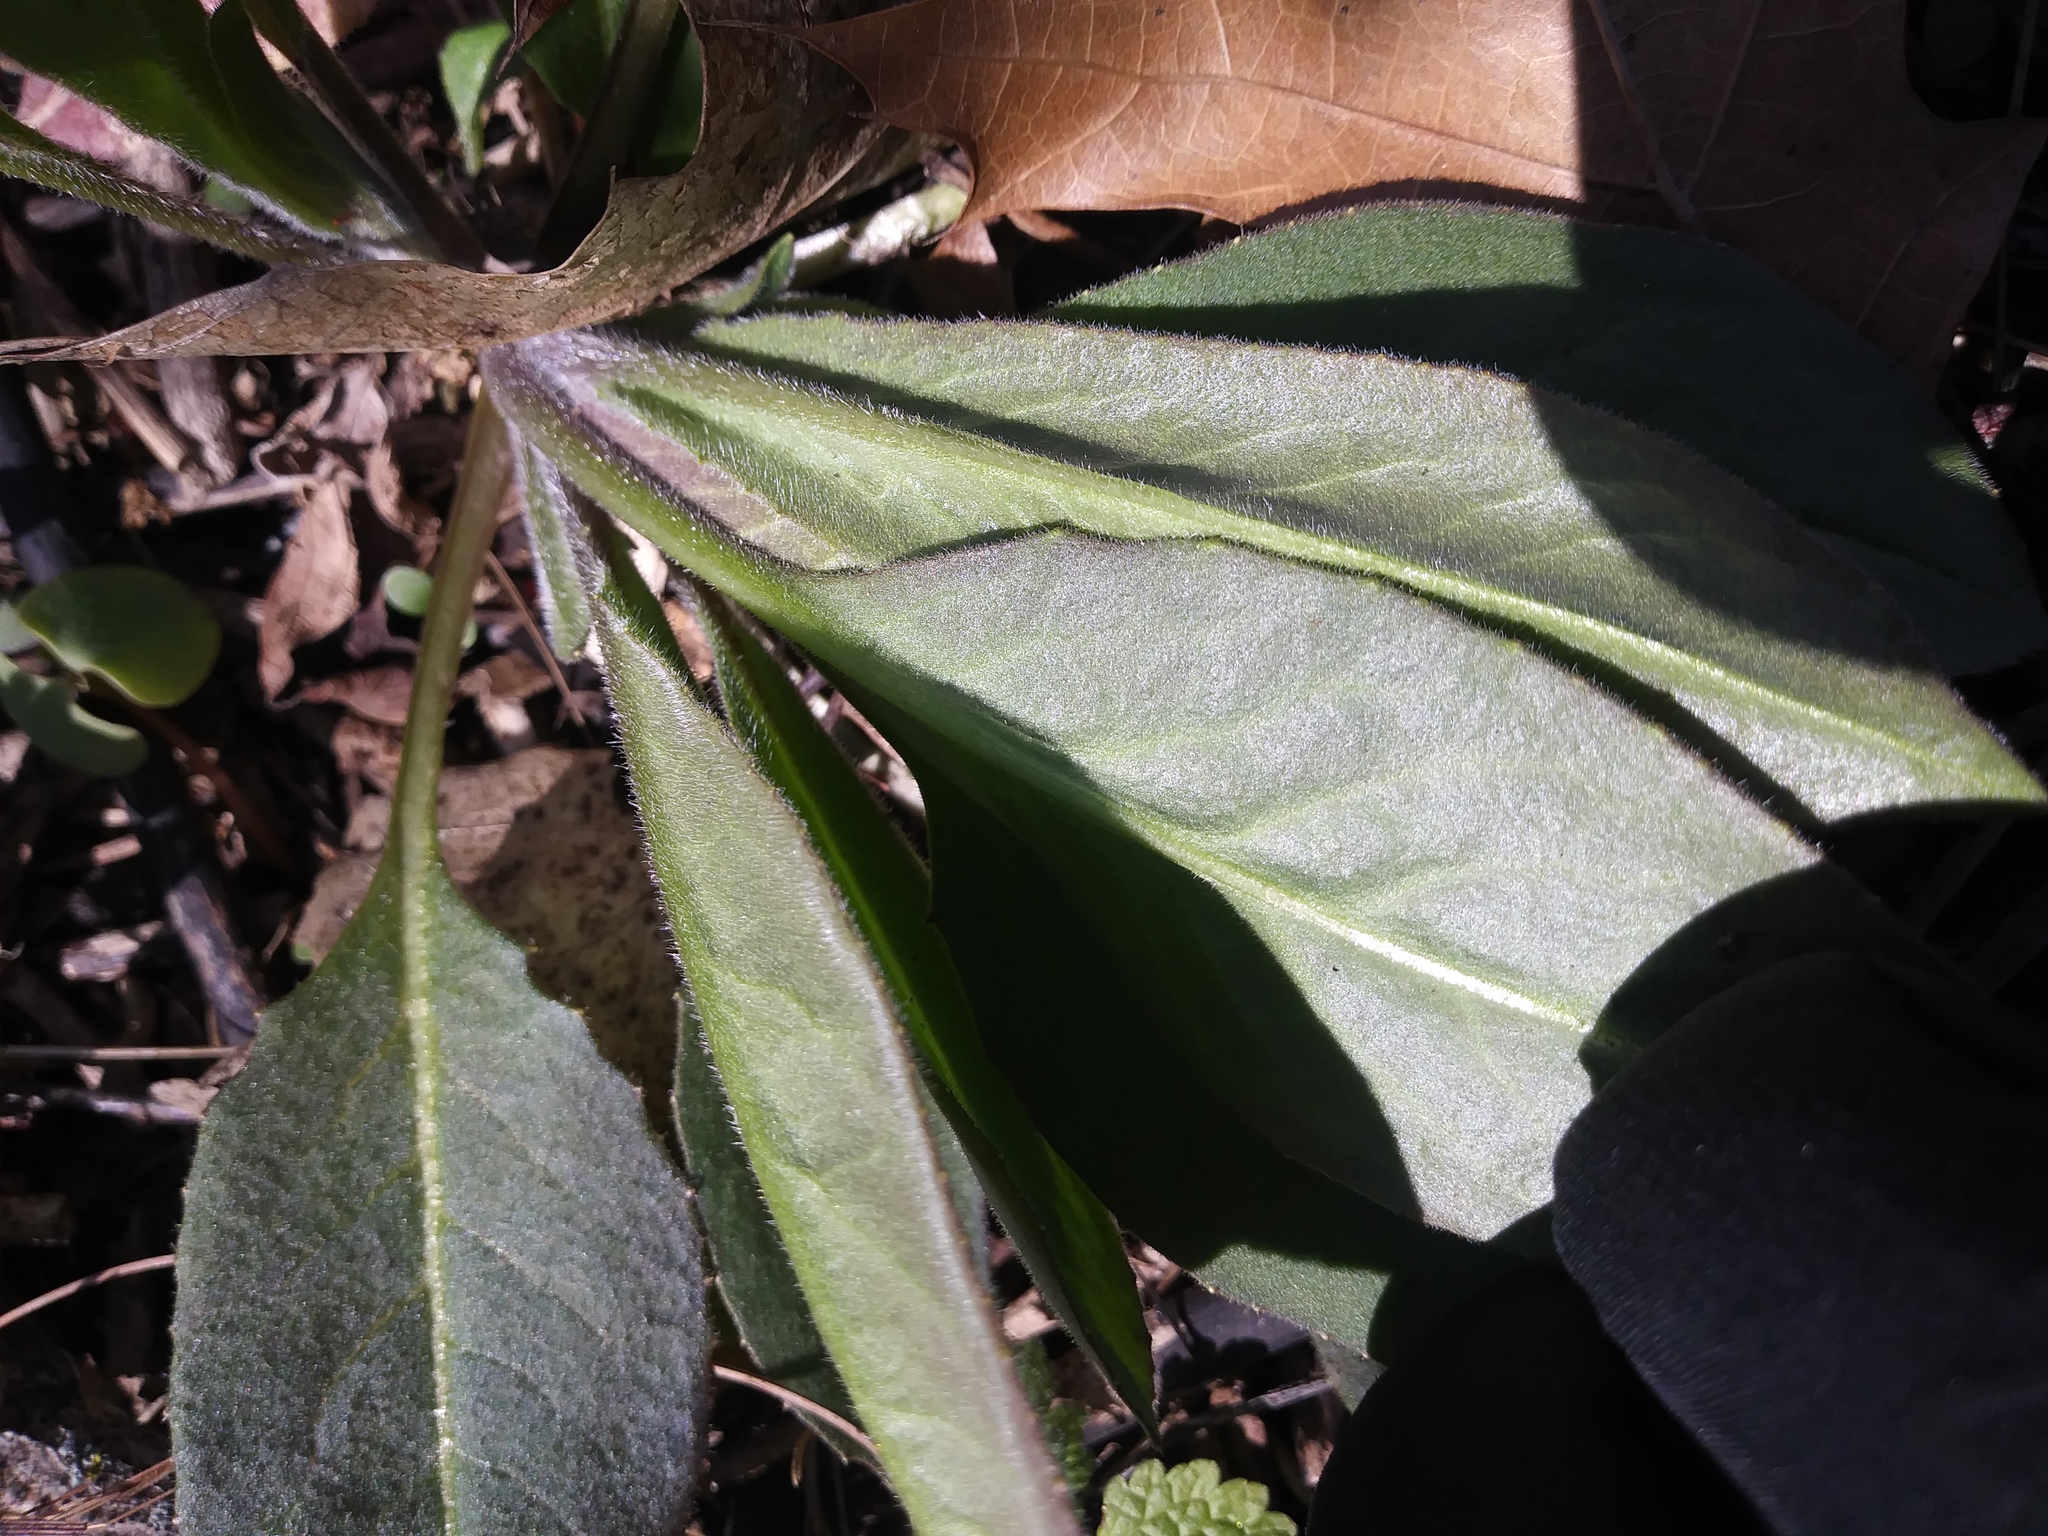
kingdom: Plantae
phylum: Tracheophyta
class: Magnoliopsida
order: Brassicales
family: Brassicaceae
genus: Hesperis
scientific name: Hesperis matronalis
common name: Dame's-violet
